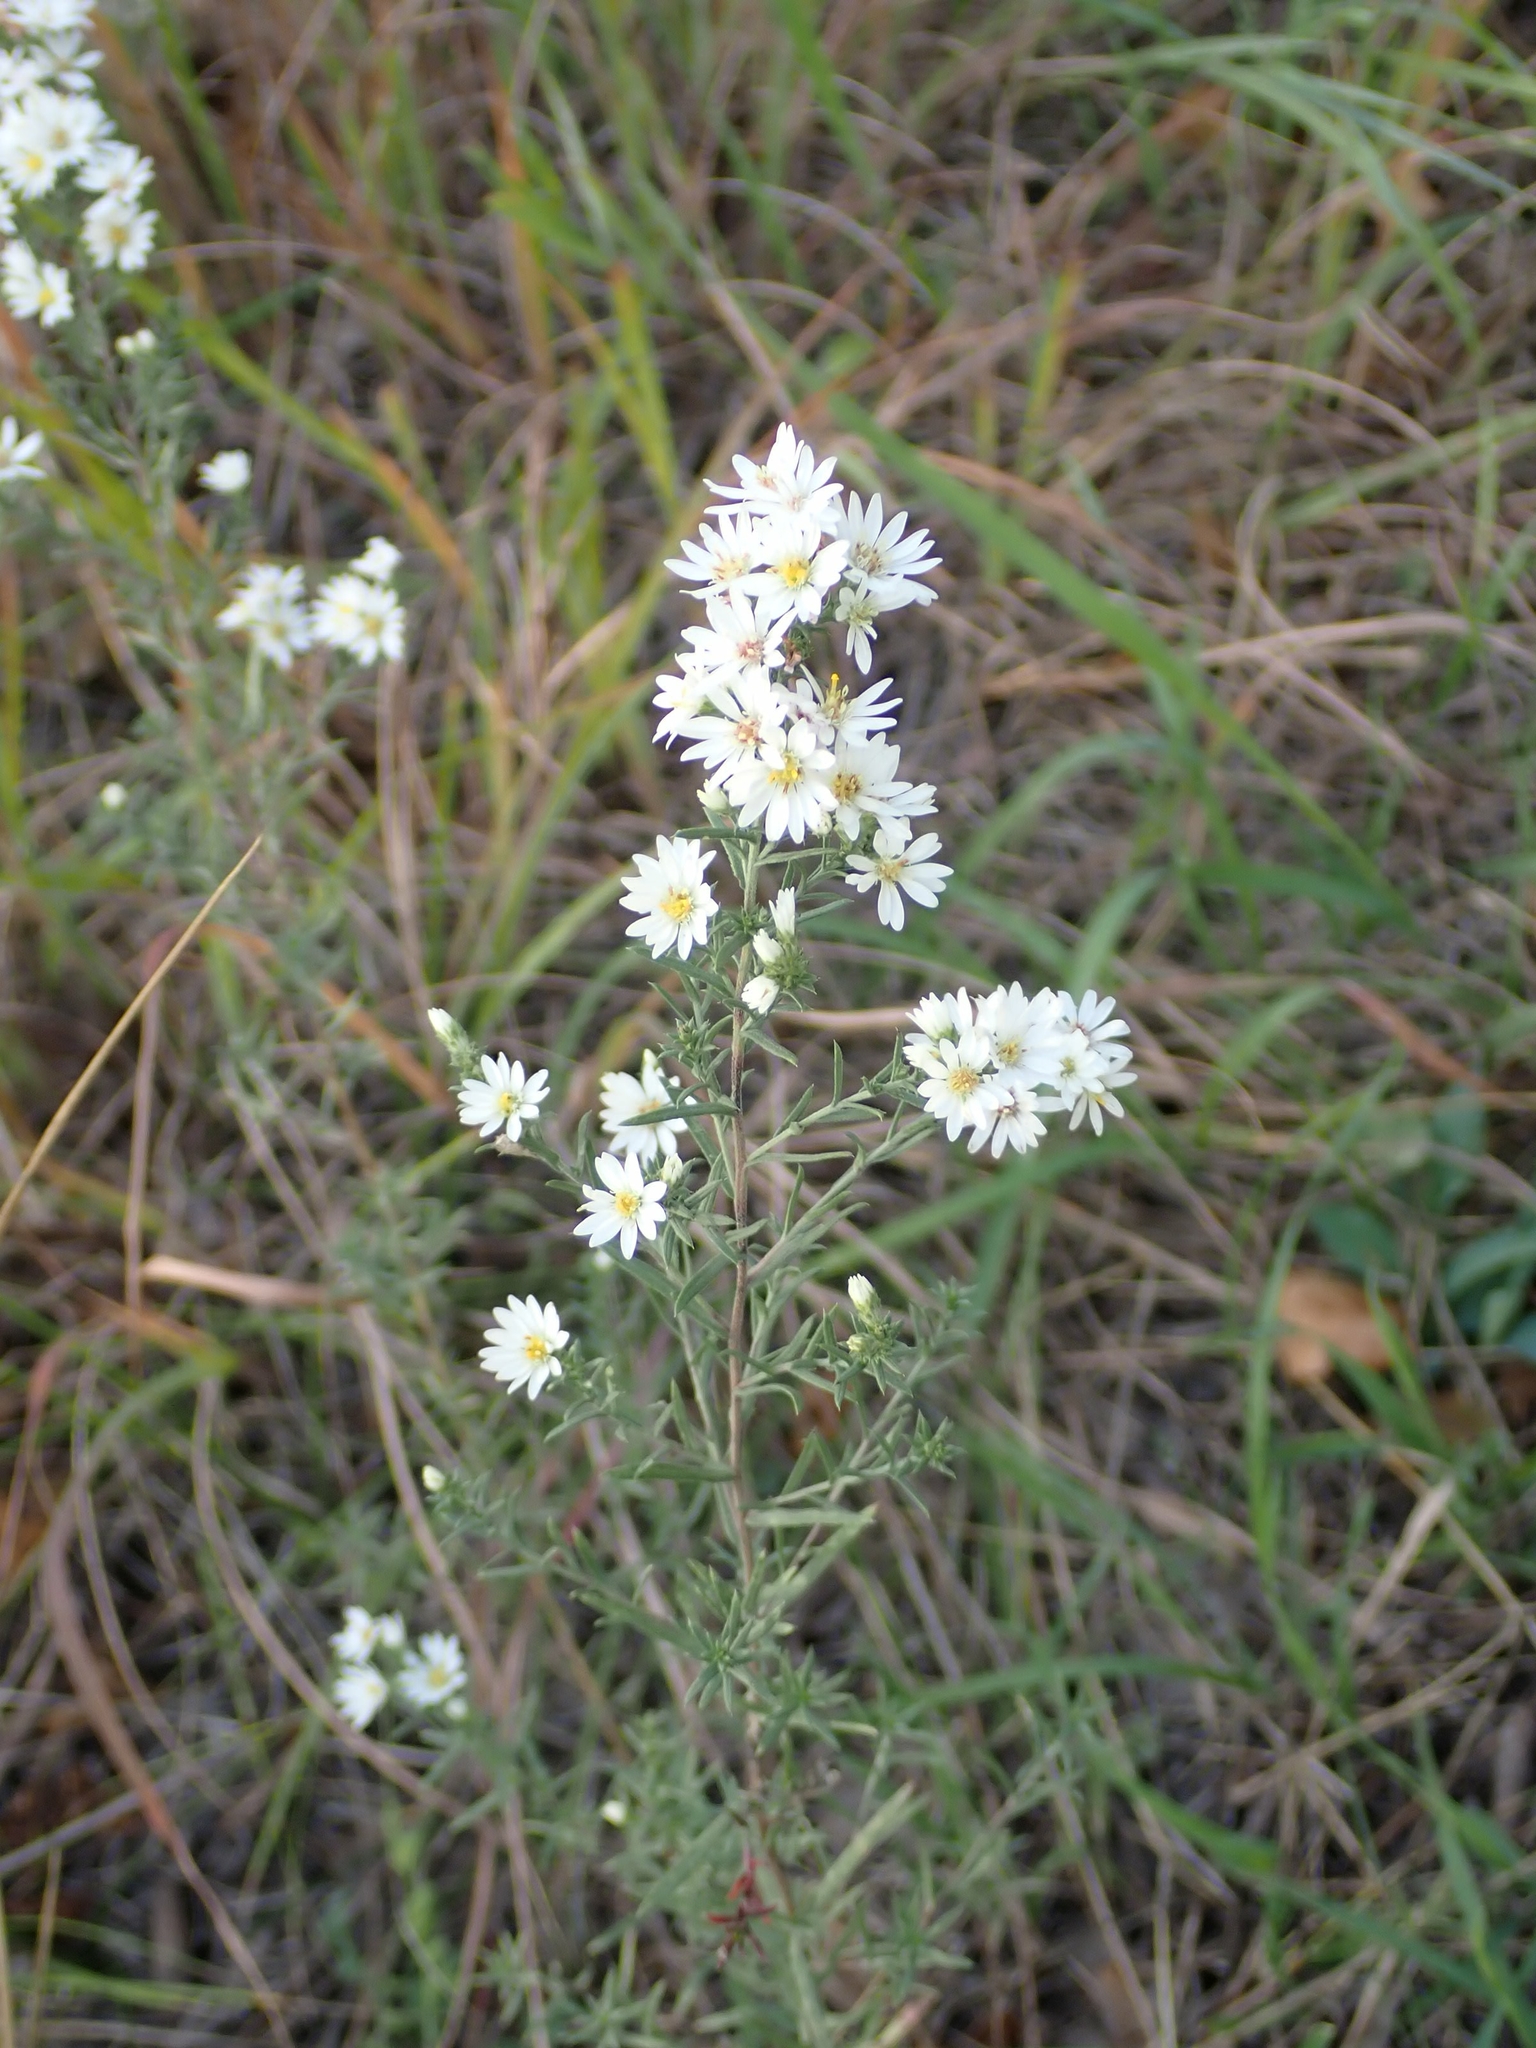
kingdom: Plantae
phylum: Tracheophyta
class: Magnoliopsida
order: Asterales
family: Asteraceae
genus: Symphyotrichum
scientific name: Symphyotrichum ericoides
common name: Heath aster
